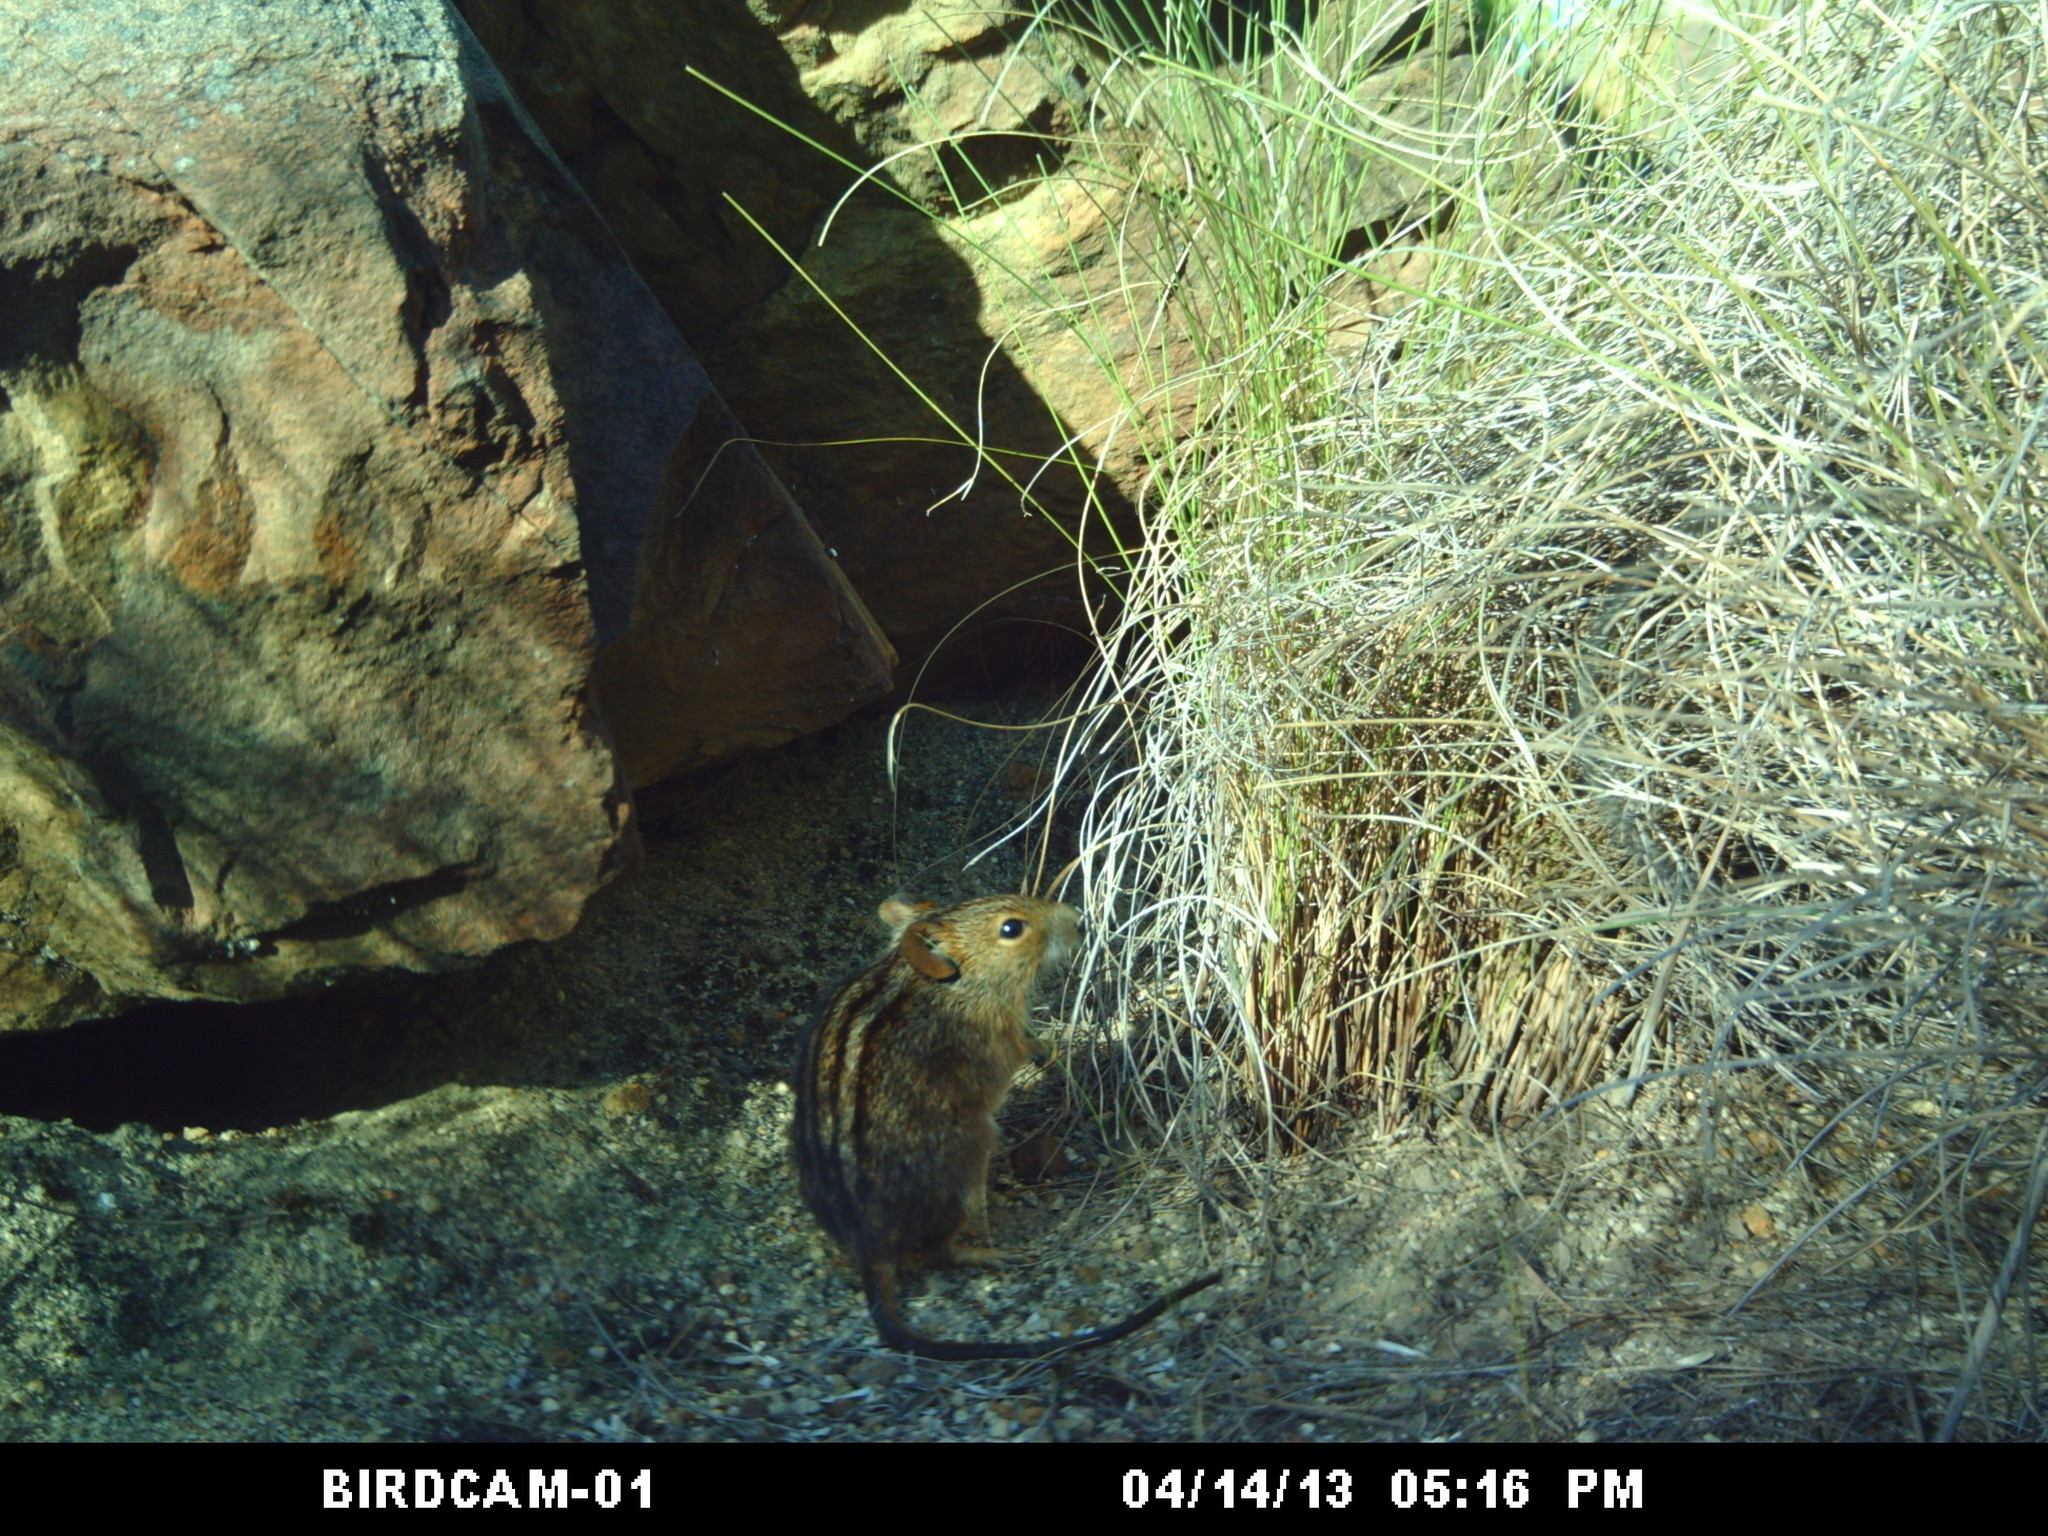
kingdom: Animalia
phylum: Chordata
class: Mammalia
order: Rodentia
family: Muridae
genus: Rhabdomys
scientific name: Rhabdomys pumilio
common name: Xeric four-striped grass rat
